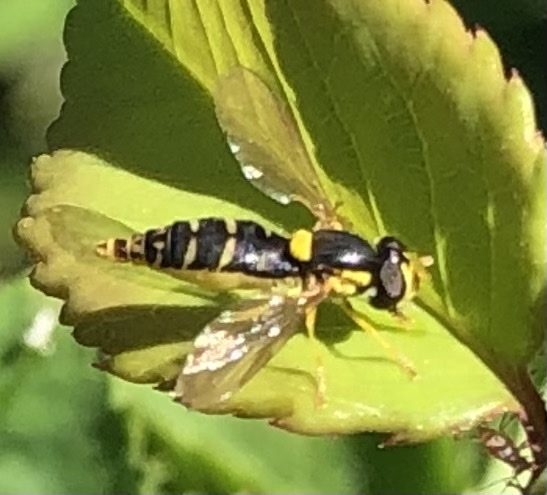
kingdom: Animalia
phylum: Arthropoda
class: Insecta
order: Diptera
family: Syrphidae
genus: Sphaerophoria
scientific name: Sphaerophoria
